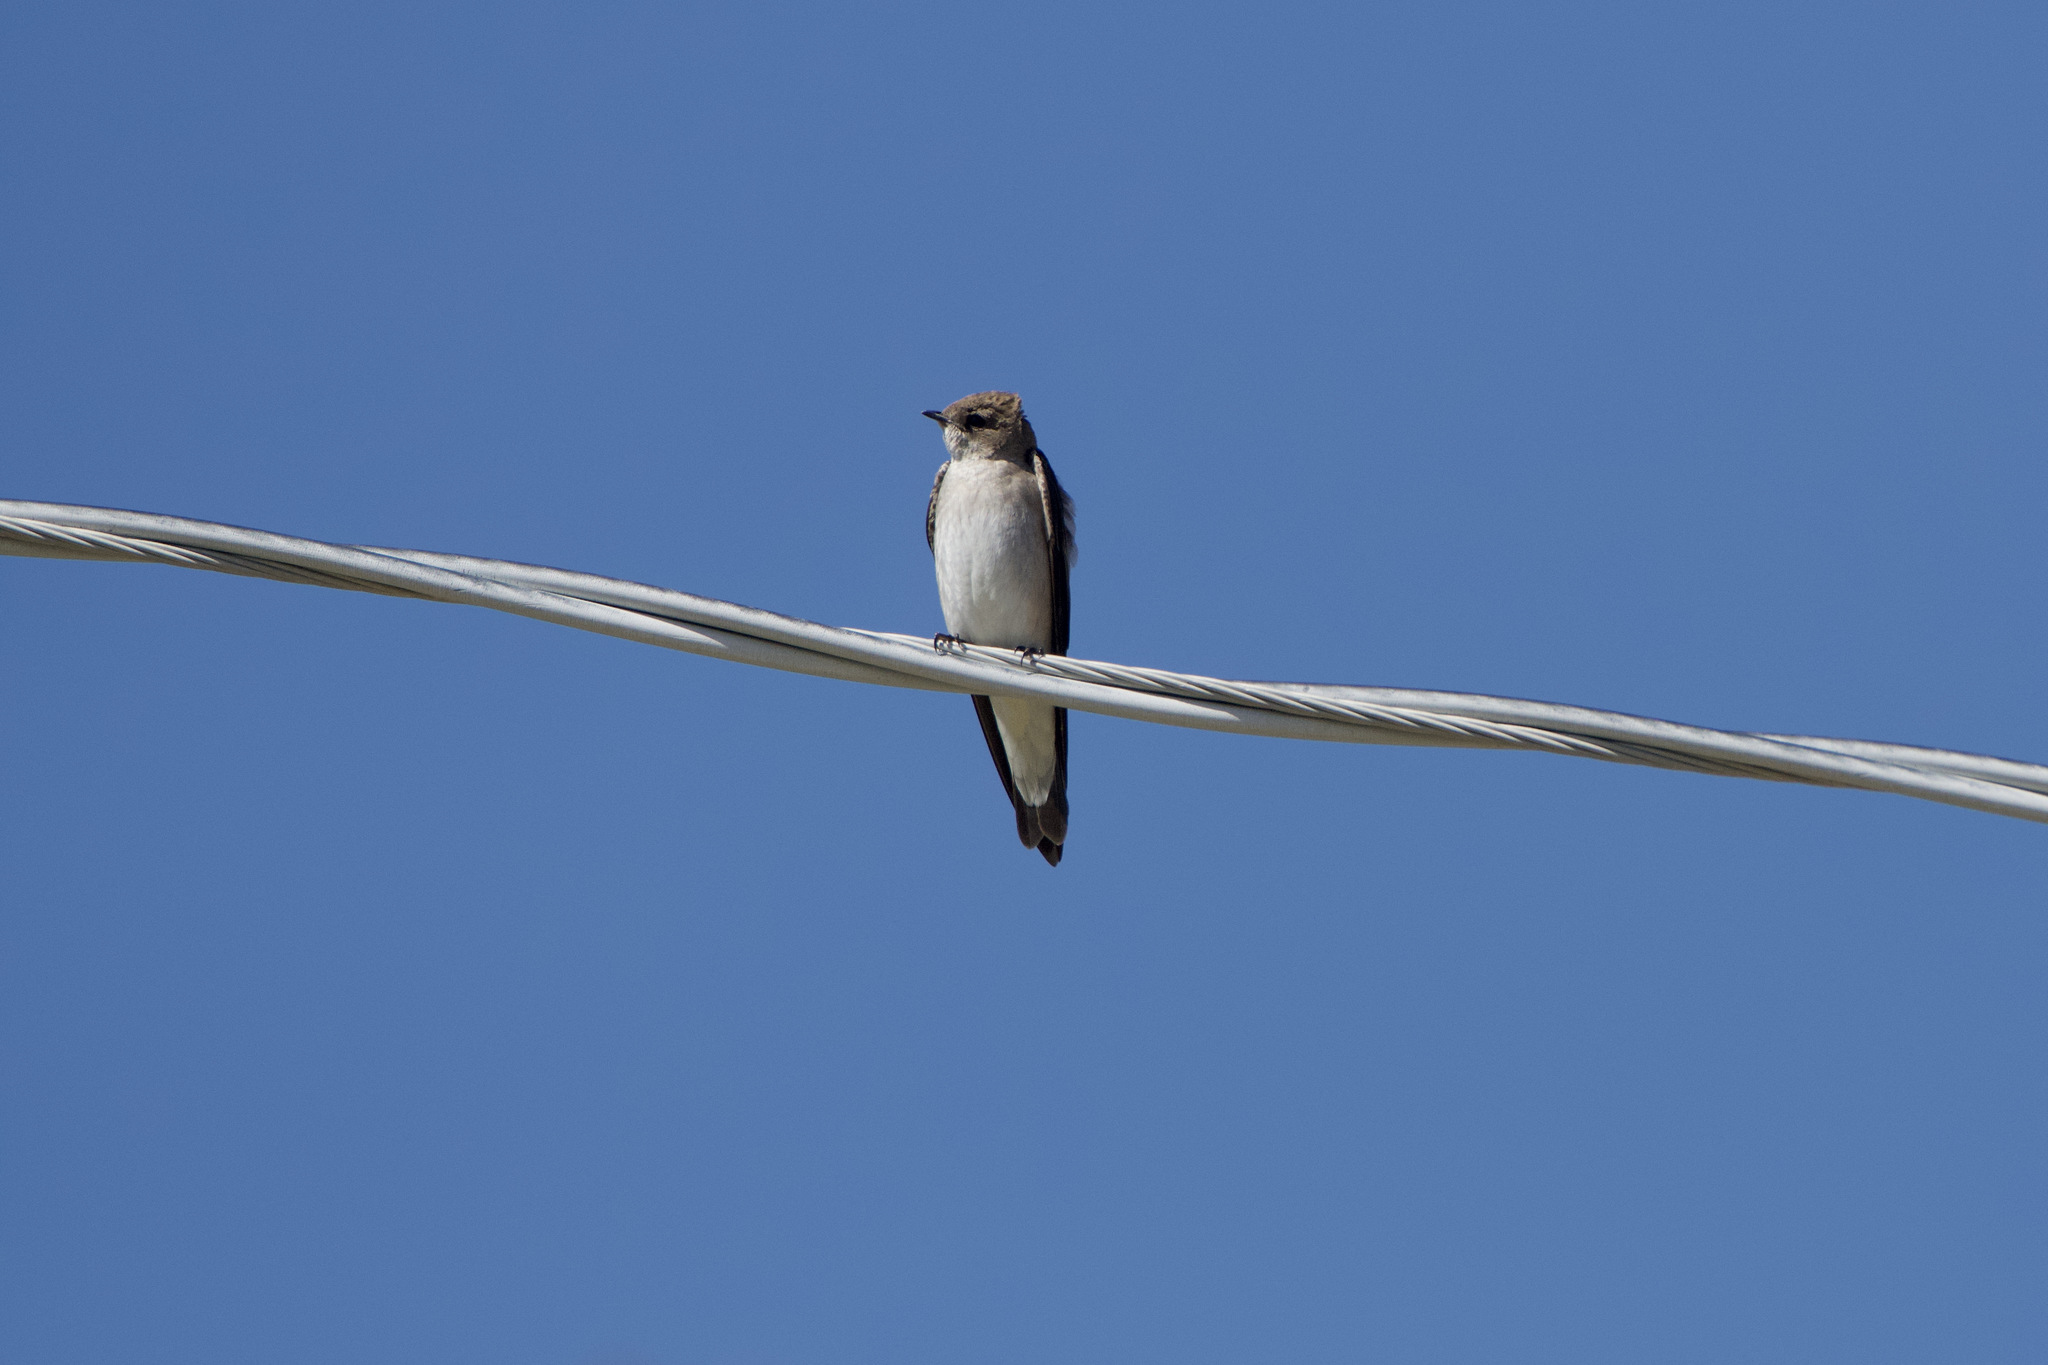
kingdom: Animalia
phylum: Chordata
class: Aves
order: Passeriformes
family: Hirundinidae
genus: Stelgidopteryx
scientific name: Stelgidopteryx serripennis
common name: Northern rough-winged swallow
